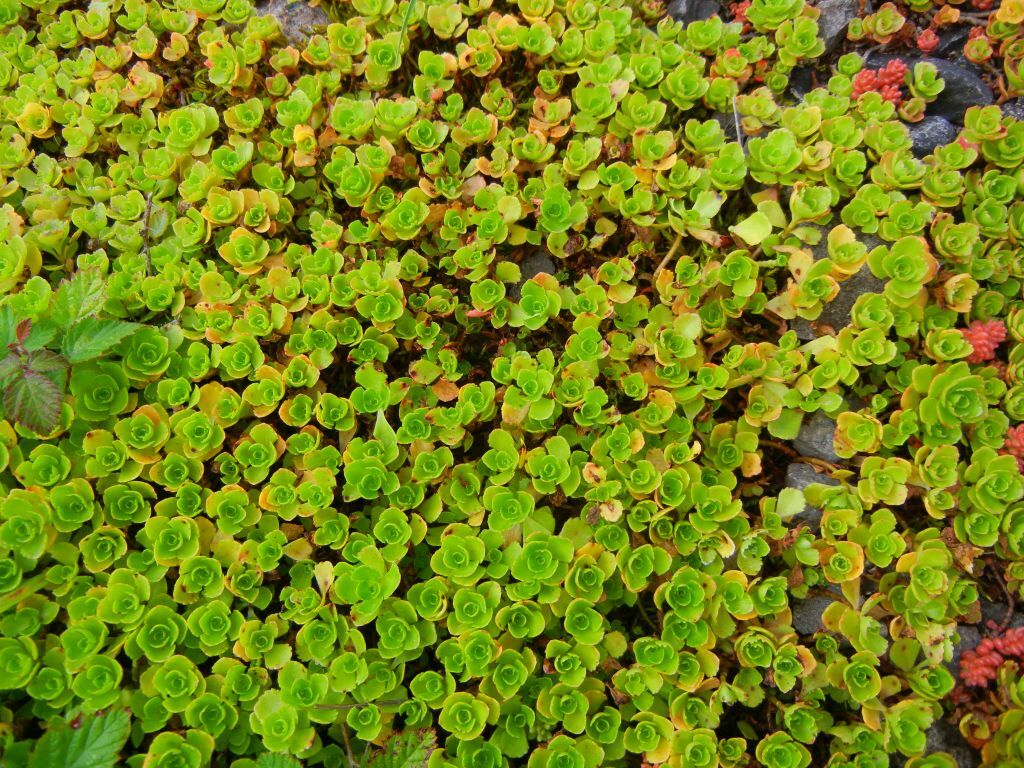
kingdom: Plantae
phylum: Tracheophyta
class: Magnoliopsida
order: Saxifragales
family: Crassulaceae
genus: Phedimus
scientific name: Phedimus spurius
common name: Caucasian stonecrop
